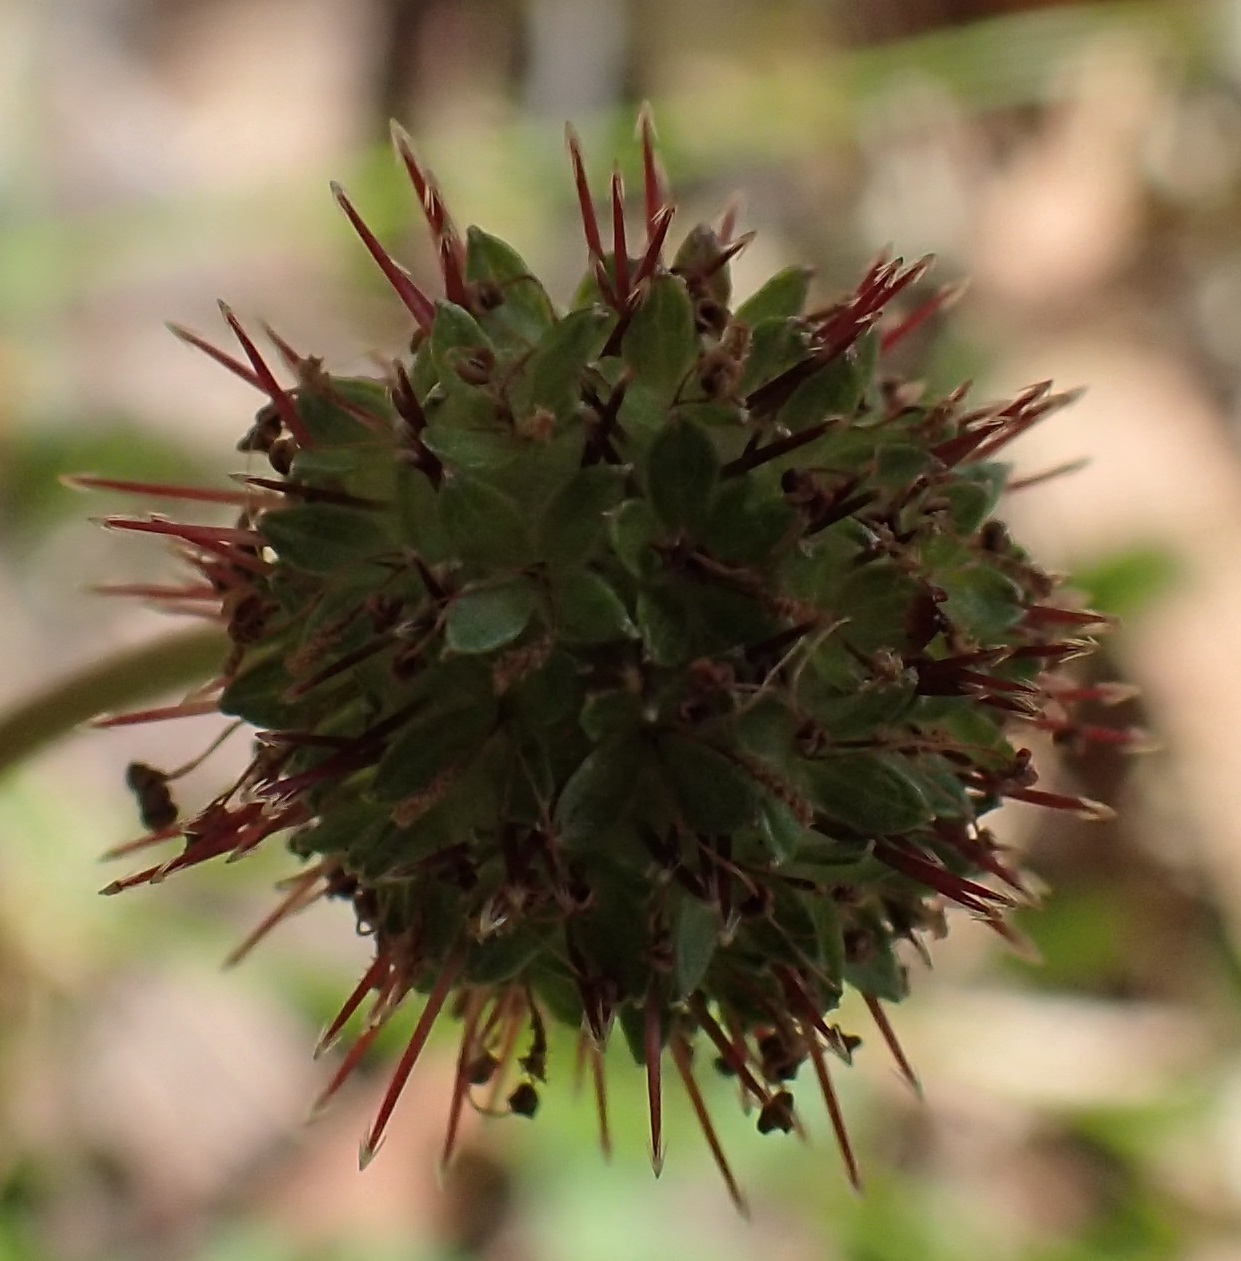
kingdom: Plantae
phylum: Tracheophyta
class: Magnoliopsida
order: Rosales
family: Rosaceae
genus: Acaena
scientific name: Acaena novae-zelandiae
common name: Pirri-pirri-bur
